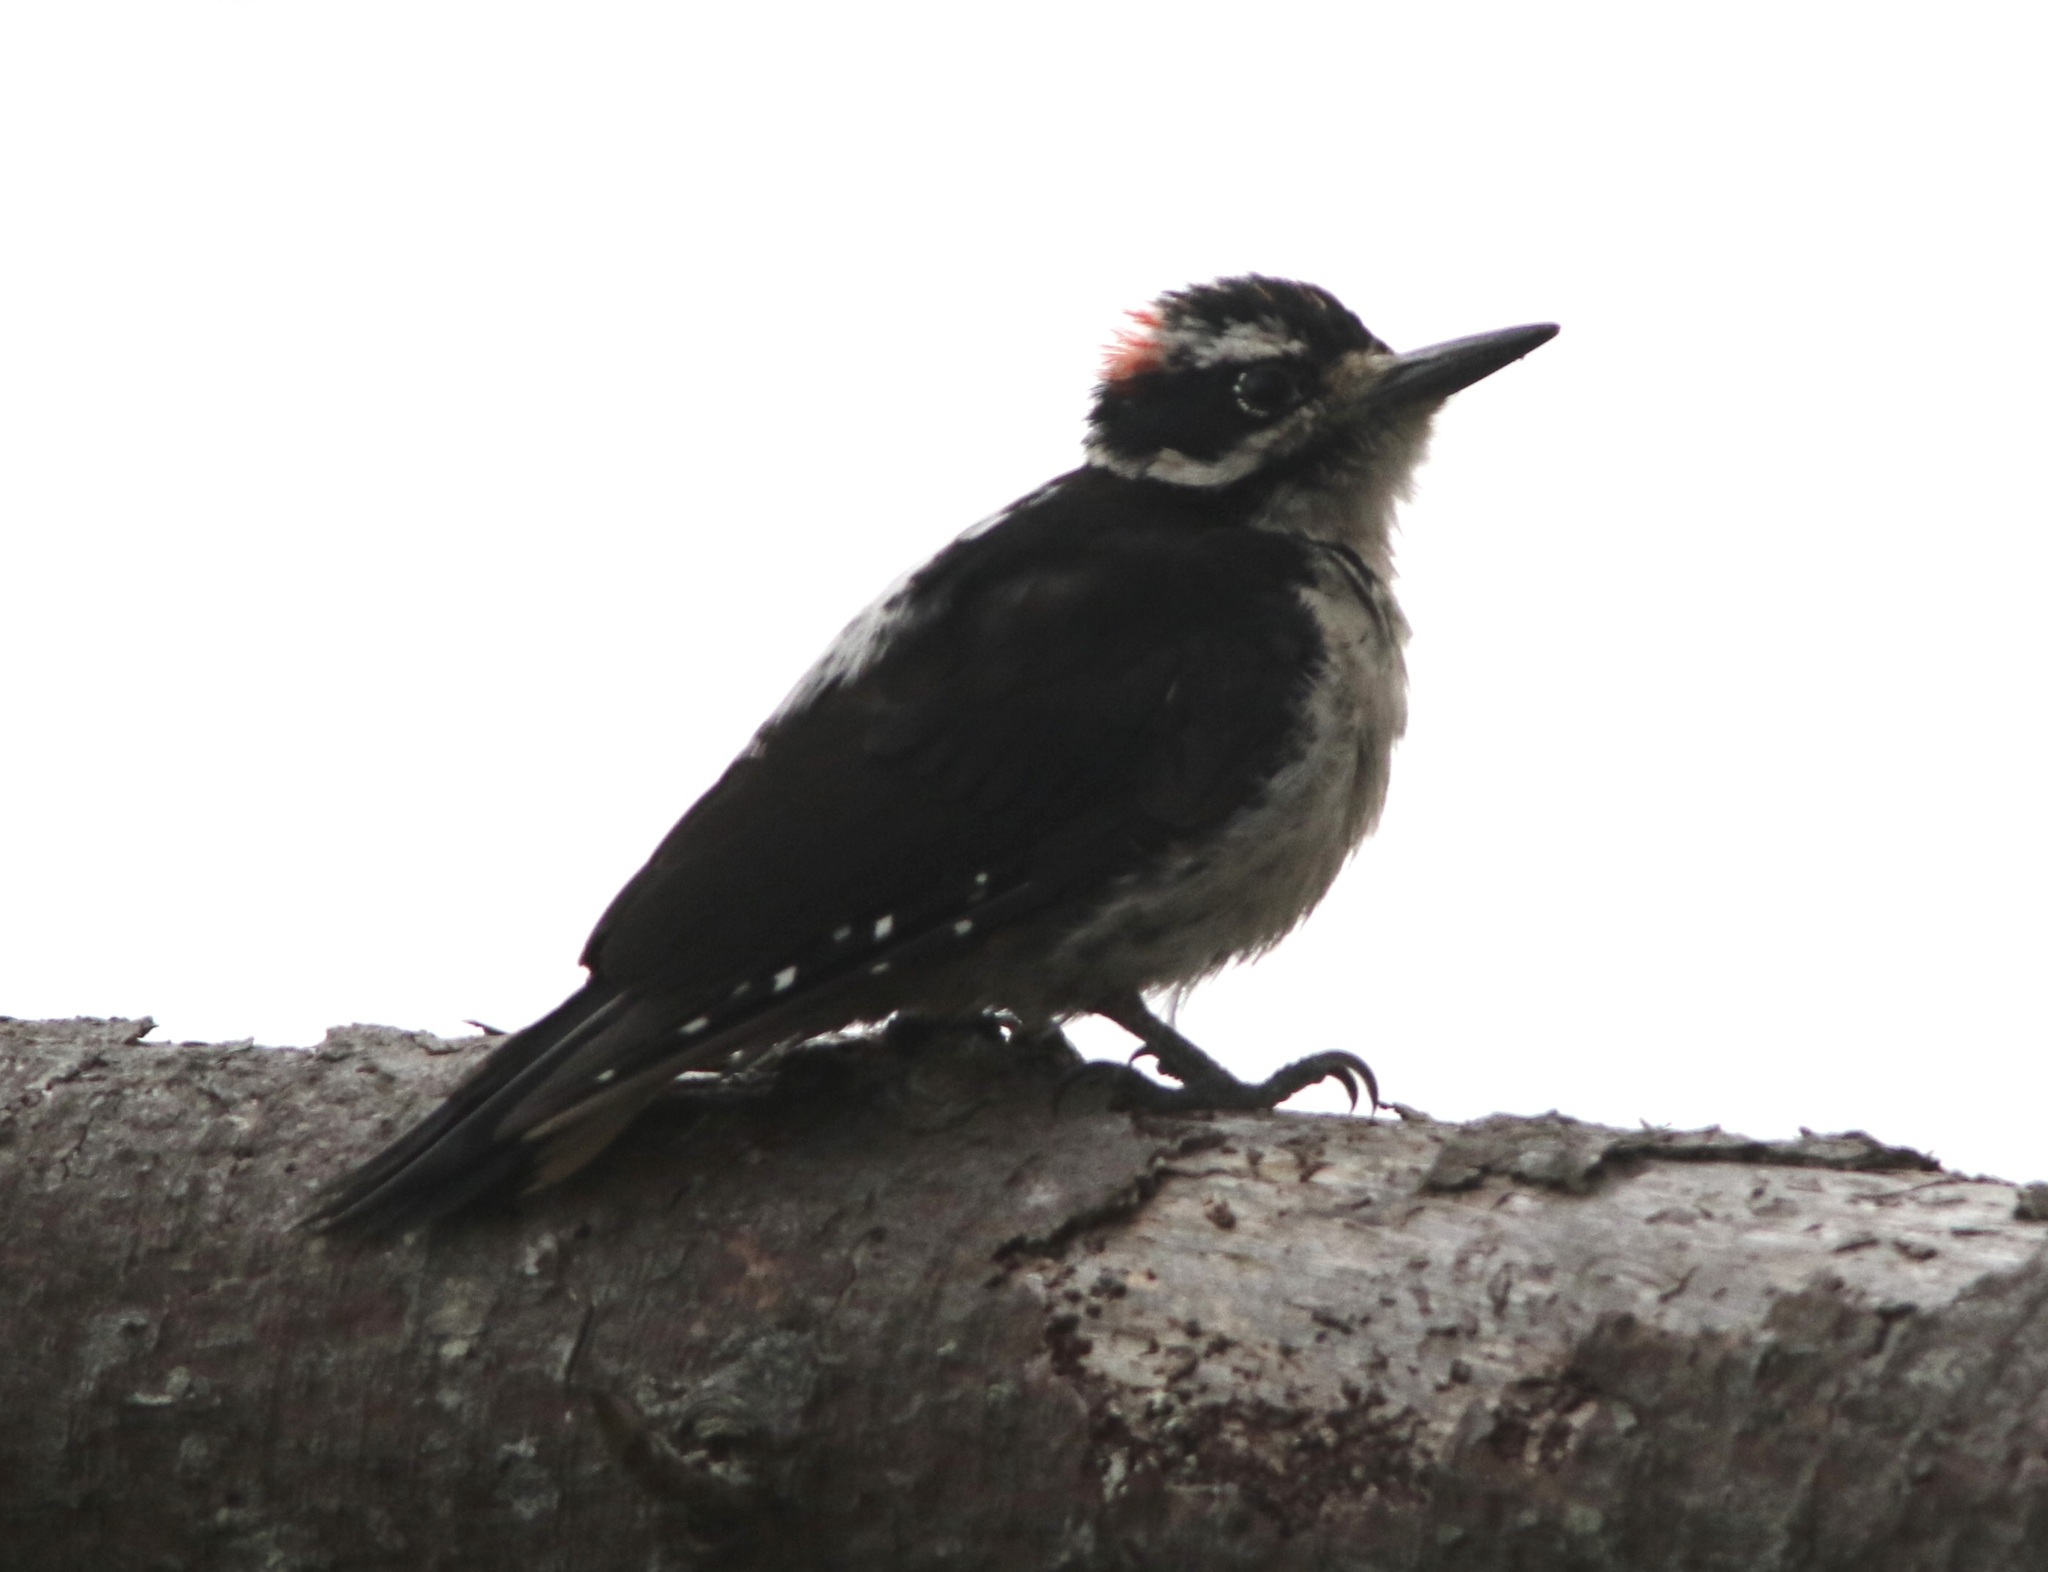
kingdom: Animalia
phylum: Chordata
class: Aves
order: Piciformes
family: Picidae
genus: Leuconotopicus
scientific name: Leuconotopicus villosus
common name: Hairy woodpecker
